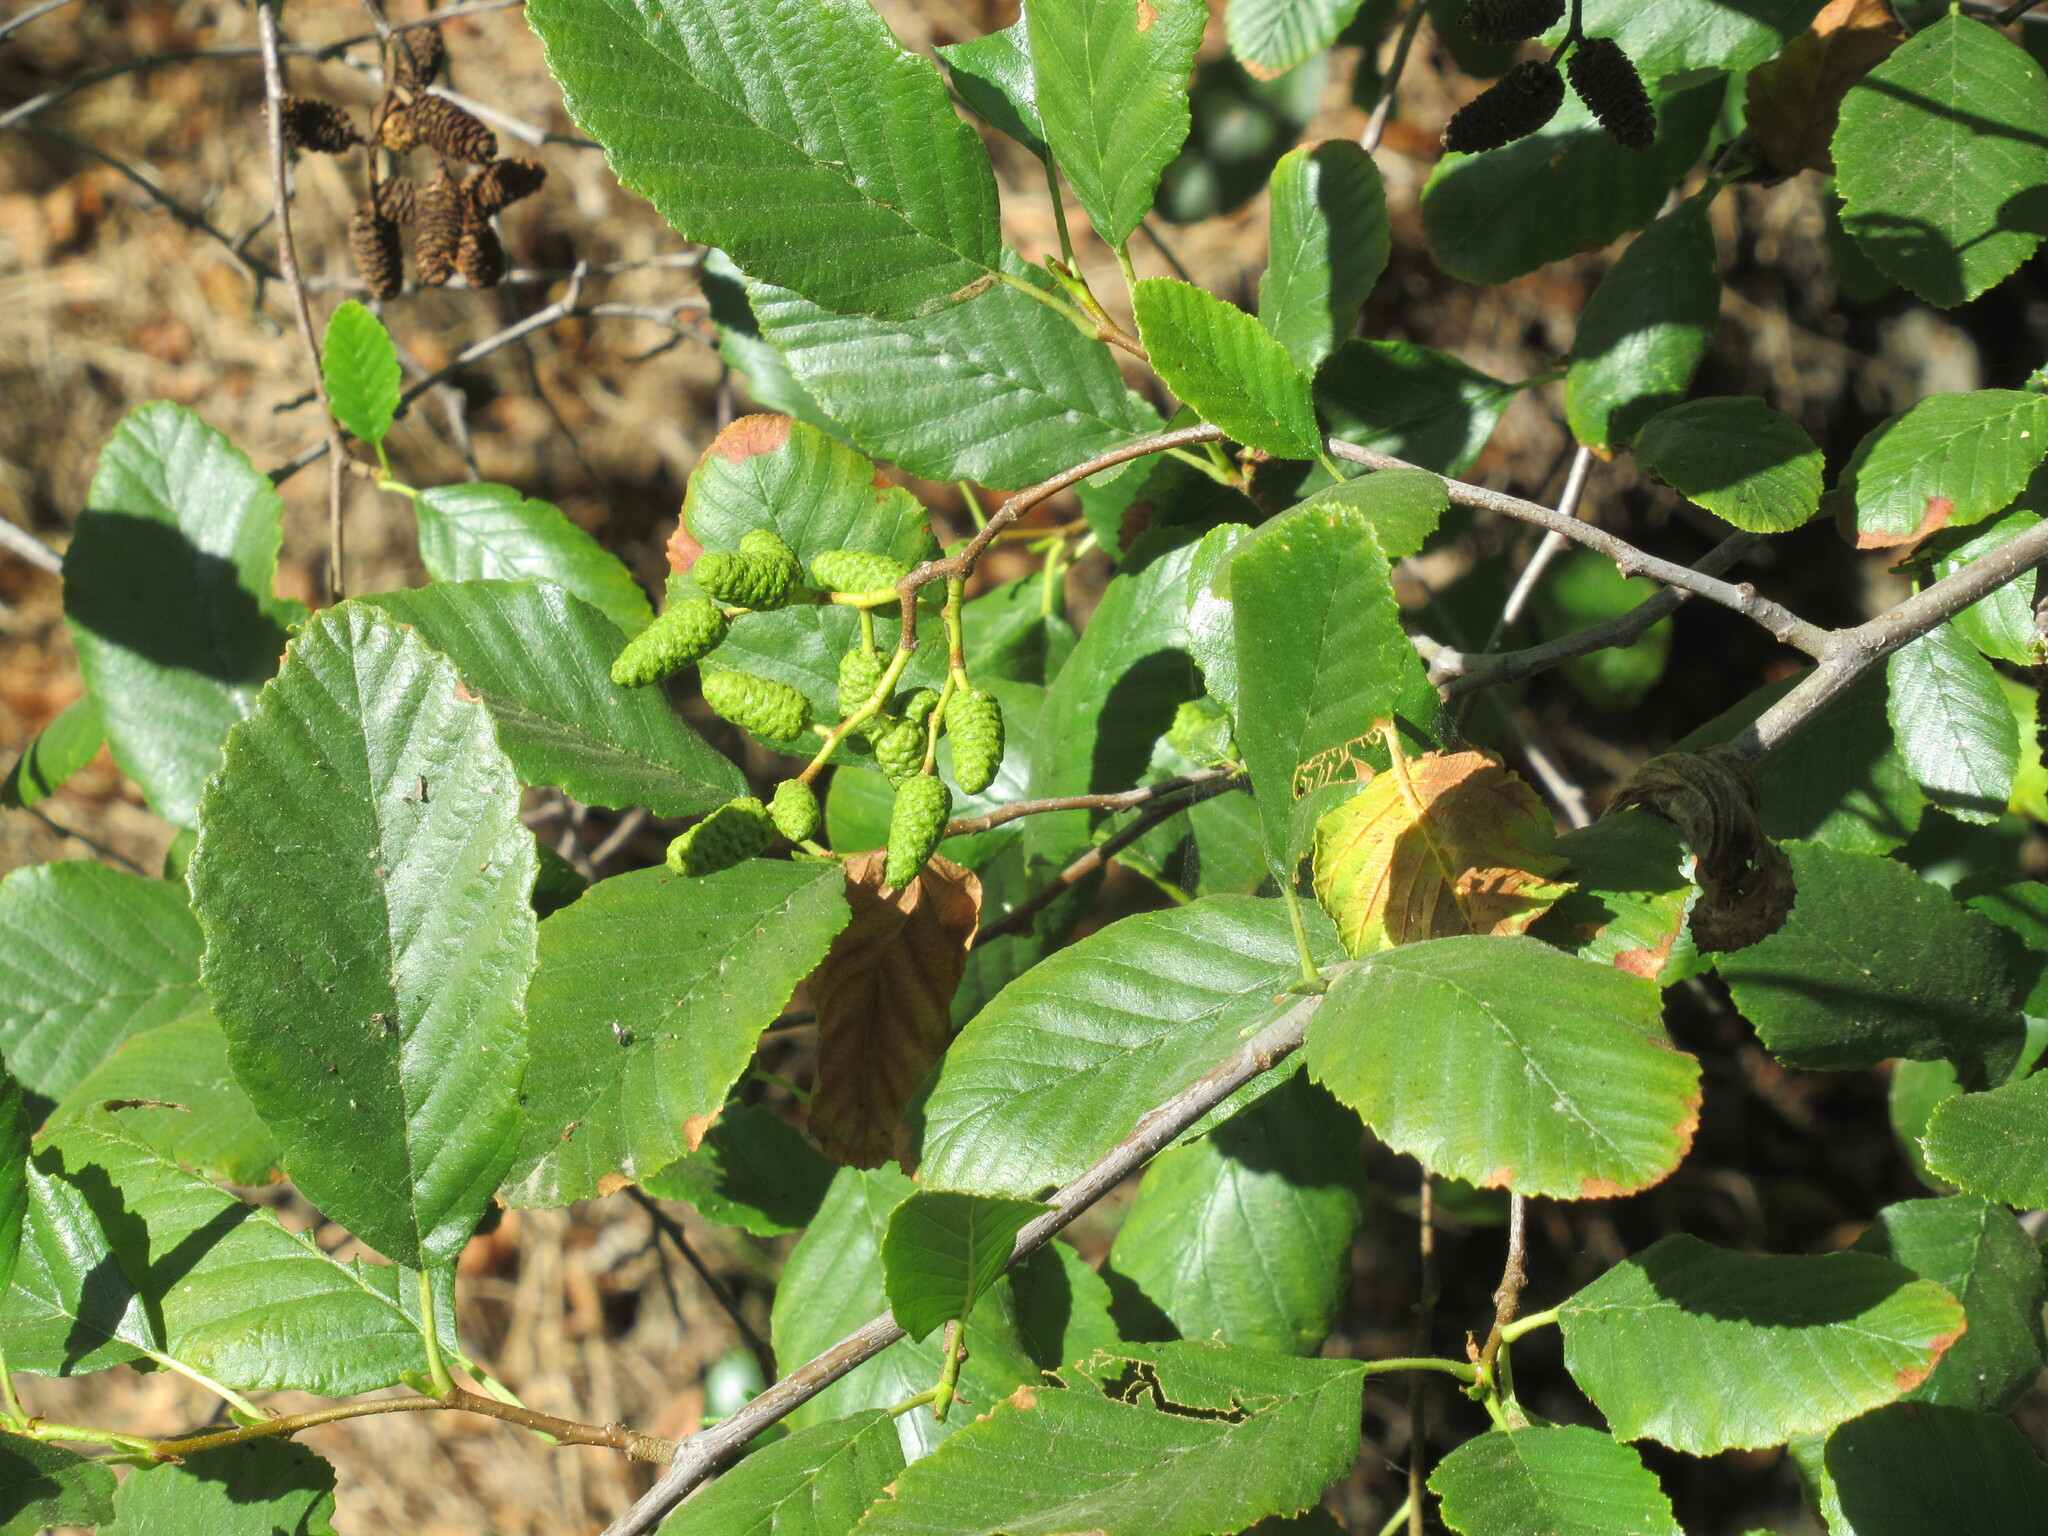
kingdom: Plantae
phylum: Tracheophyta
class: Magnoliopsida
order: Fagales
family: Betulaceae
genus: Alnus
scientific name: Alnus rhombifolia
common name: California alder
